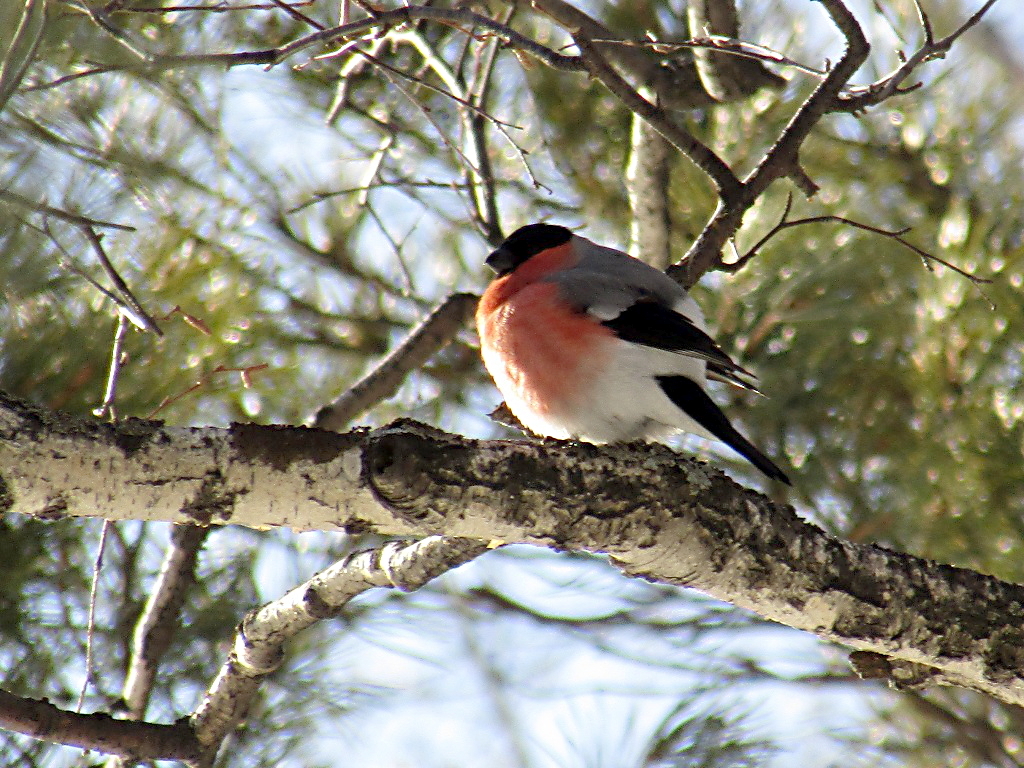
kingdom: Animalia
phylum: Chordata
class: Aves
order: Passeriformes
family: Fringillidae
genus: Pyrrhula
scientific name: Pyrrhula pyrrhula
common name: Eurasian bullfinch
